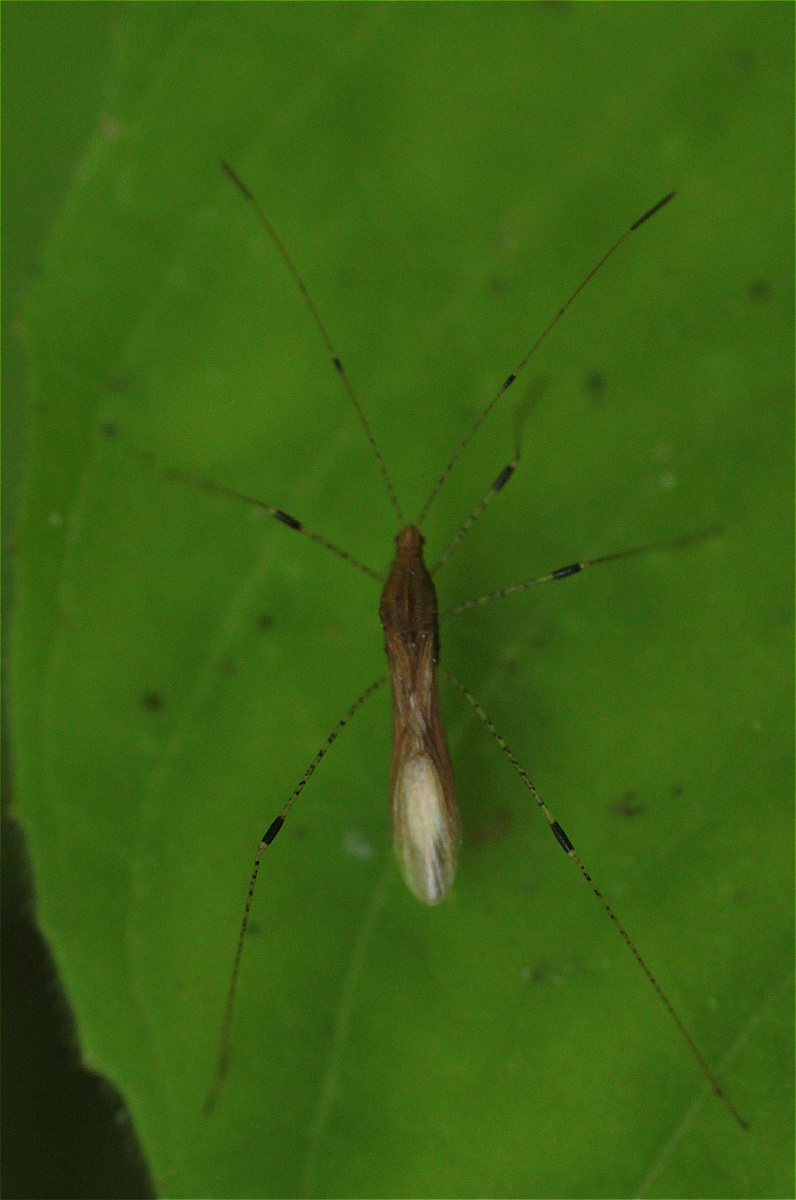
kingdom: Animalia
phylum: Arthropoda
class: Insecta
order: Hemiptera
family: Berytidae
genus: Metatropis
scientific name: Metatropis rufescens
